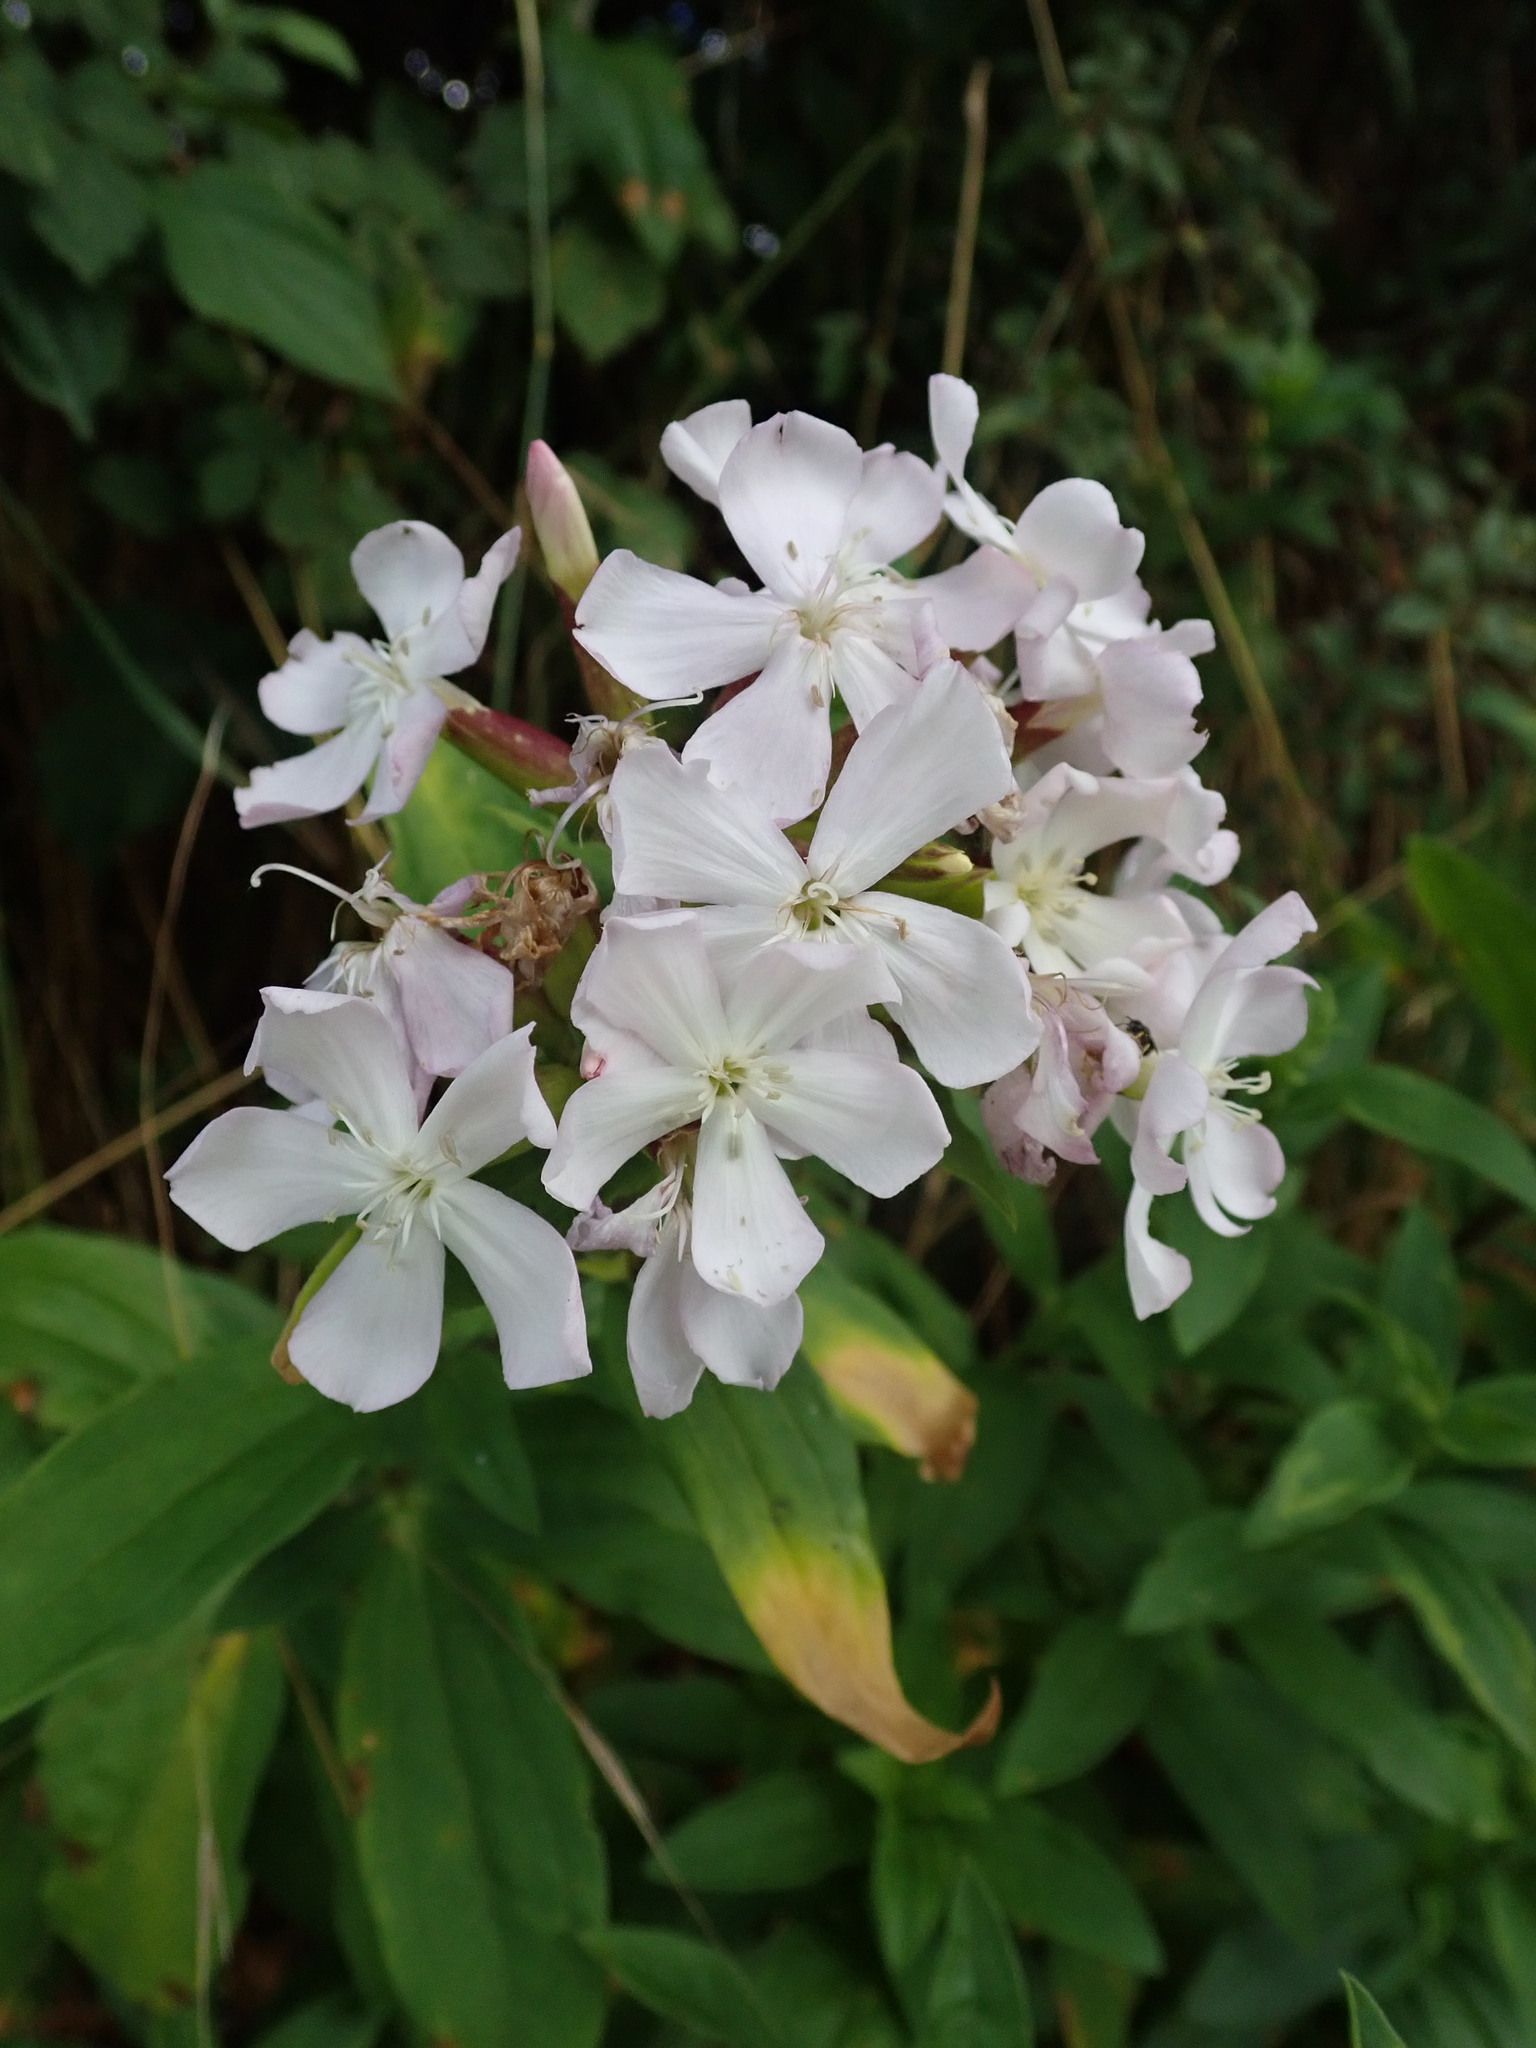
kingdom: Plantae
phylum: Tracheophyta
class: Magnoliopsida
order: Caryophyllales
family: Caryophyllaceae
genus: Saponaria
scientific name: Saponaria officinalis
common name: Soapwort
